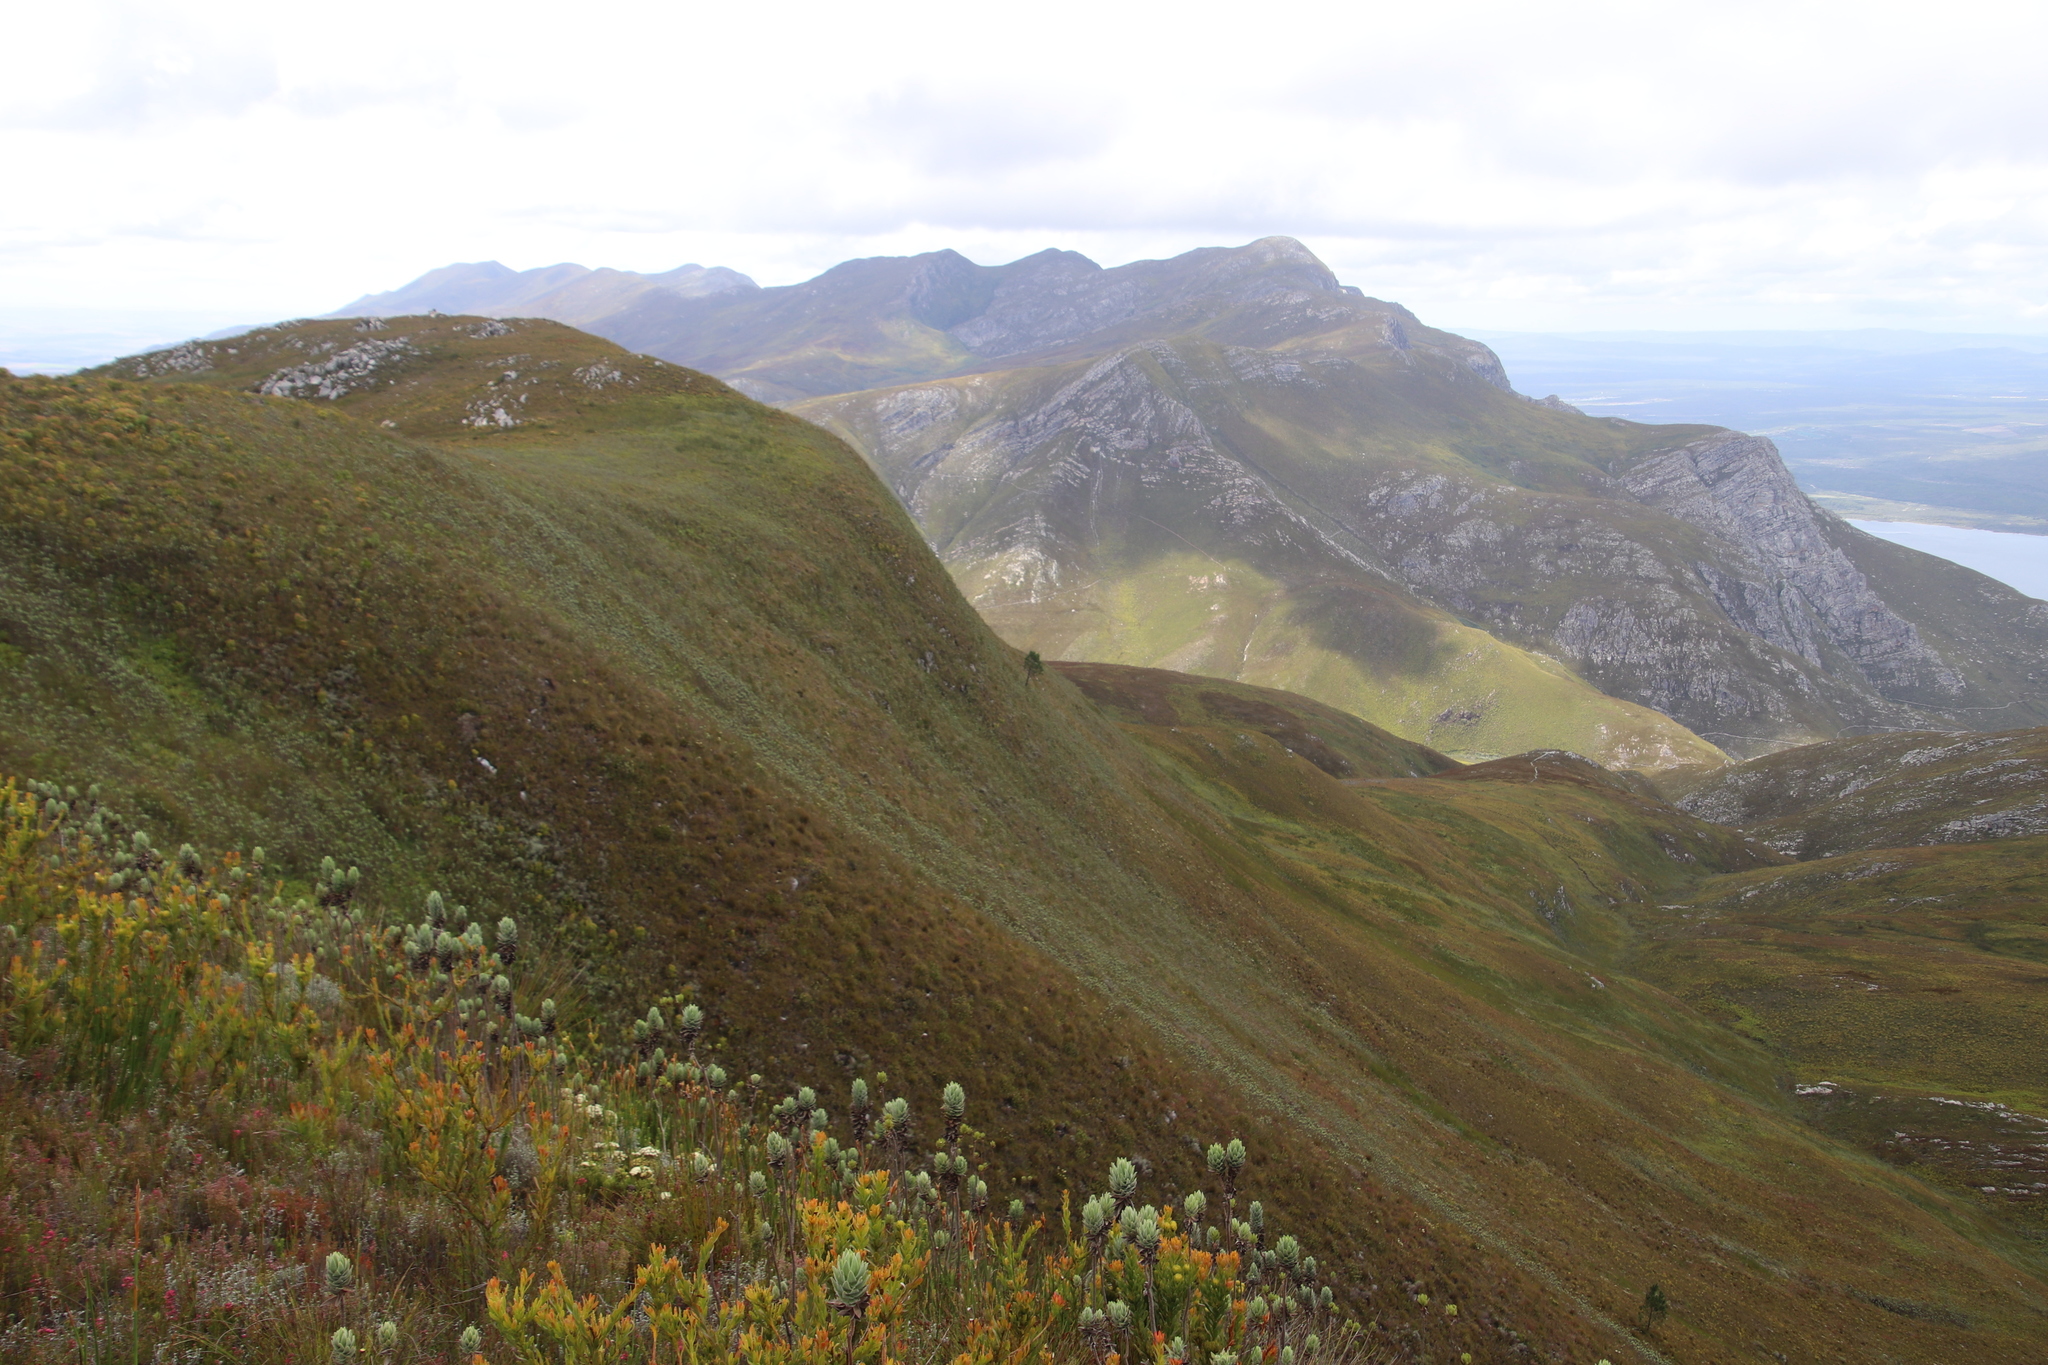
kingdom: Plantae
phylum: Tracheophyta
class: Pinopsida
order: Pinales
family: Pinaceae
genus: Pinus
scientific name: Pinus pinaster
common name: Maritime pine
